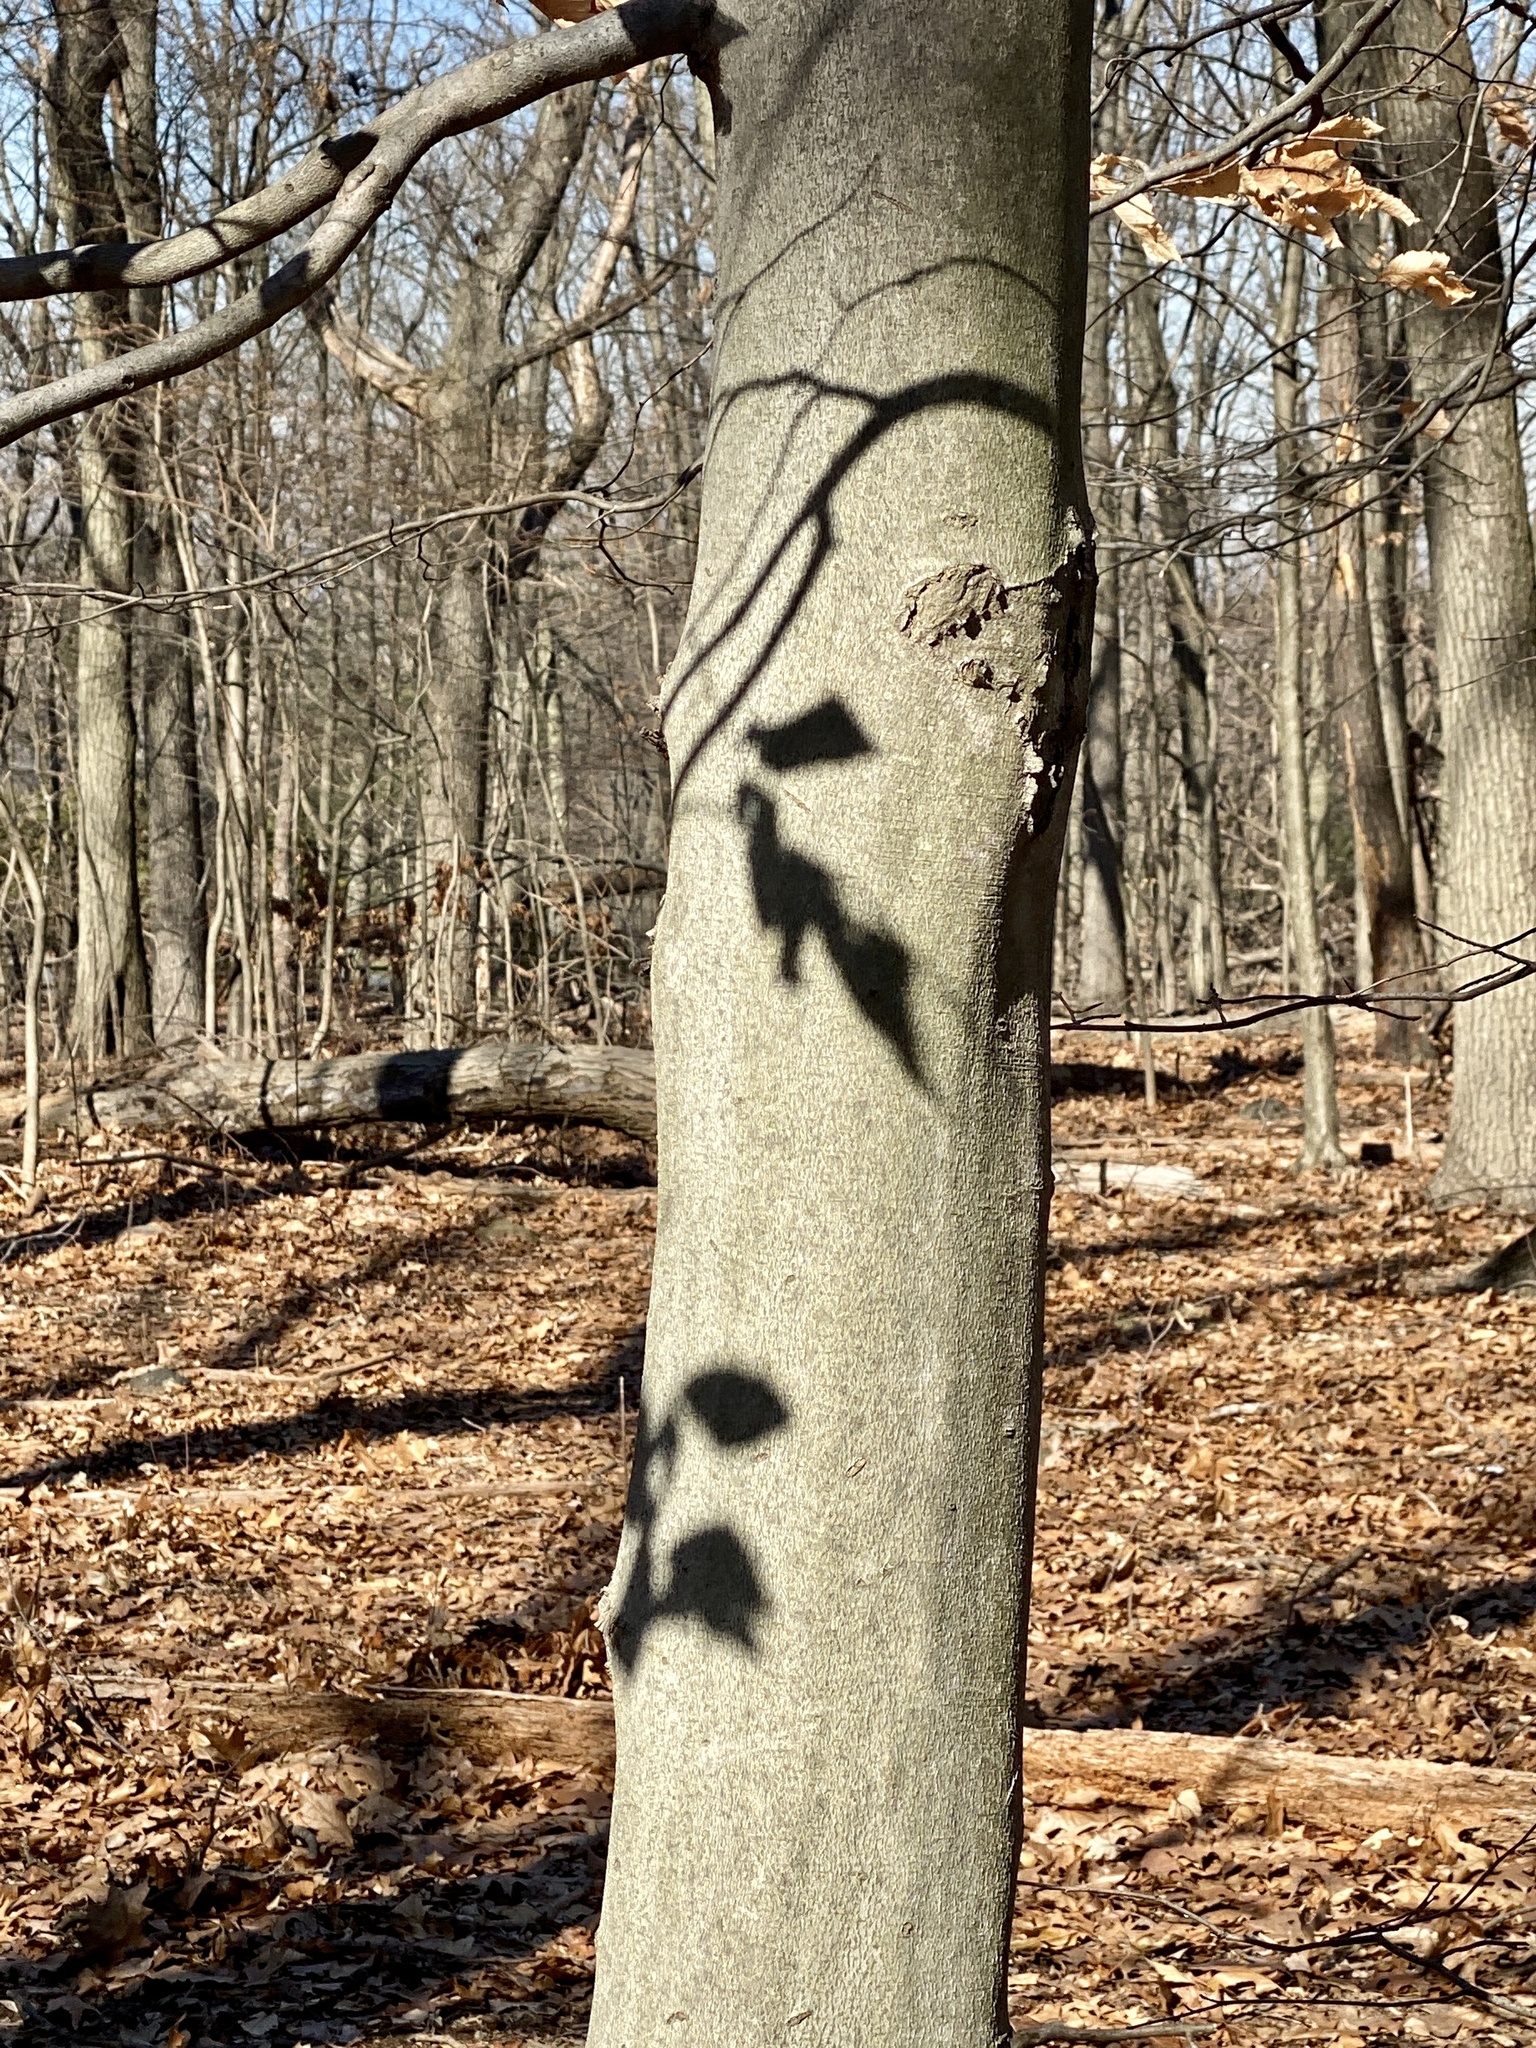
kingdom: Plantae
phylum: Tracheophyta
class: Magnoliopsida
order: Fagales
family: Fagaceae
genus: Fagus
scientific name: Fagus grandifolia
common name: American beech
